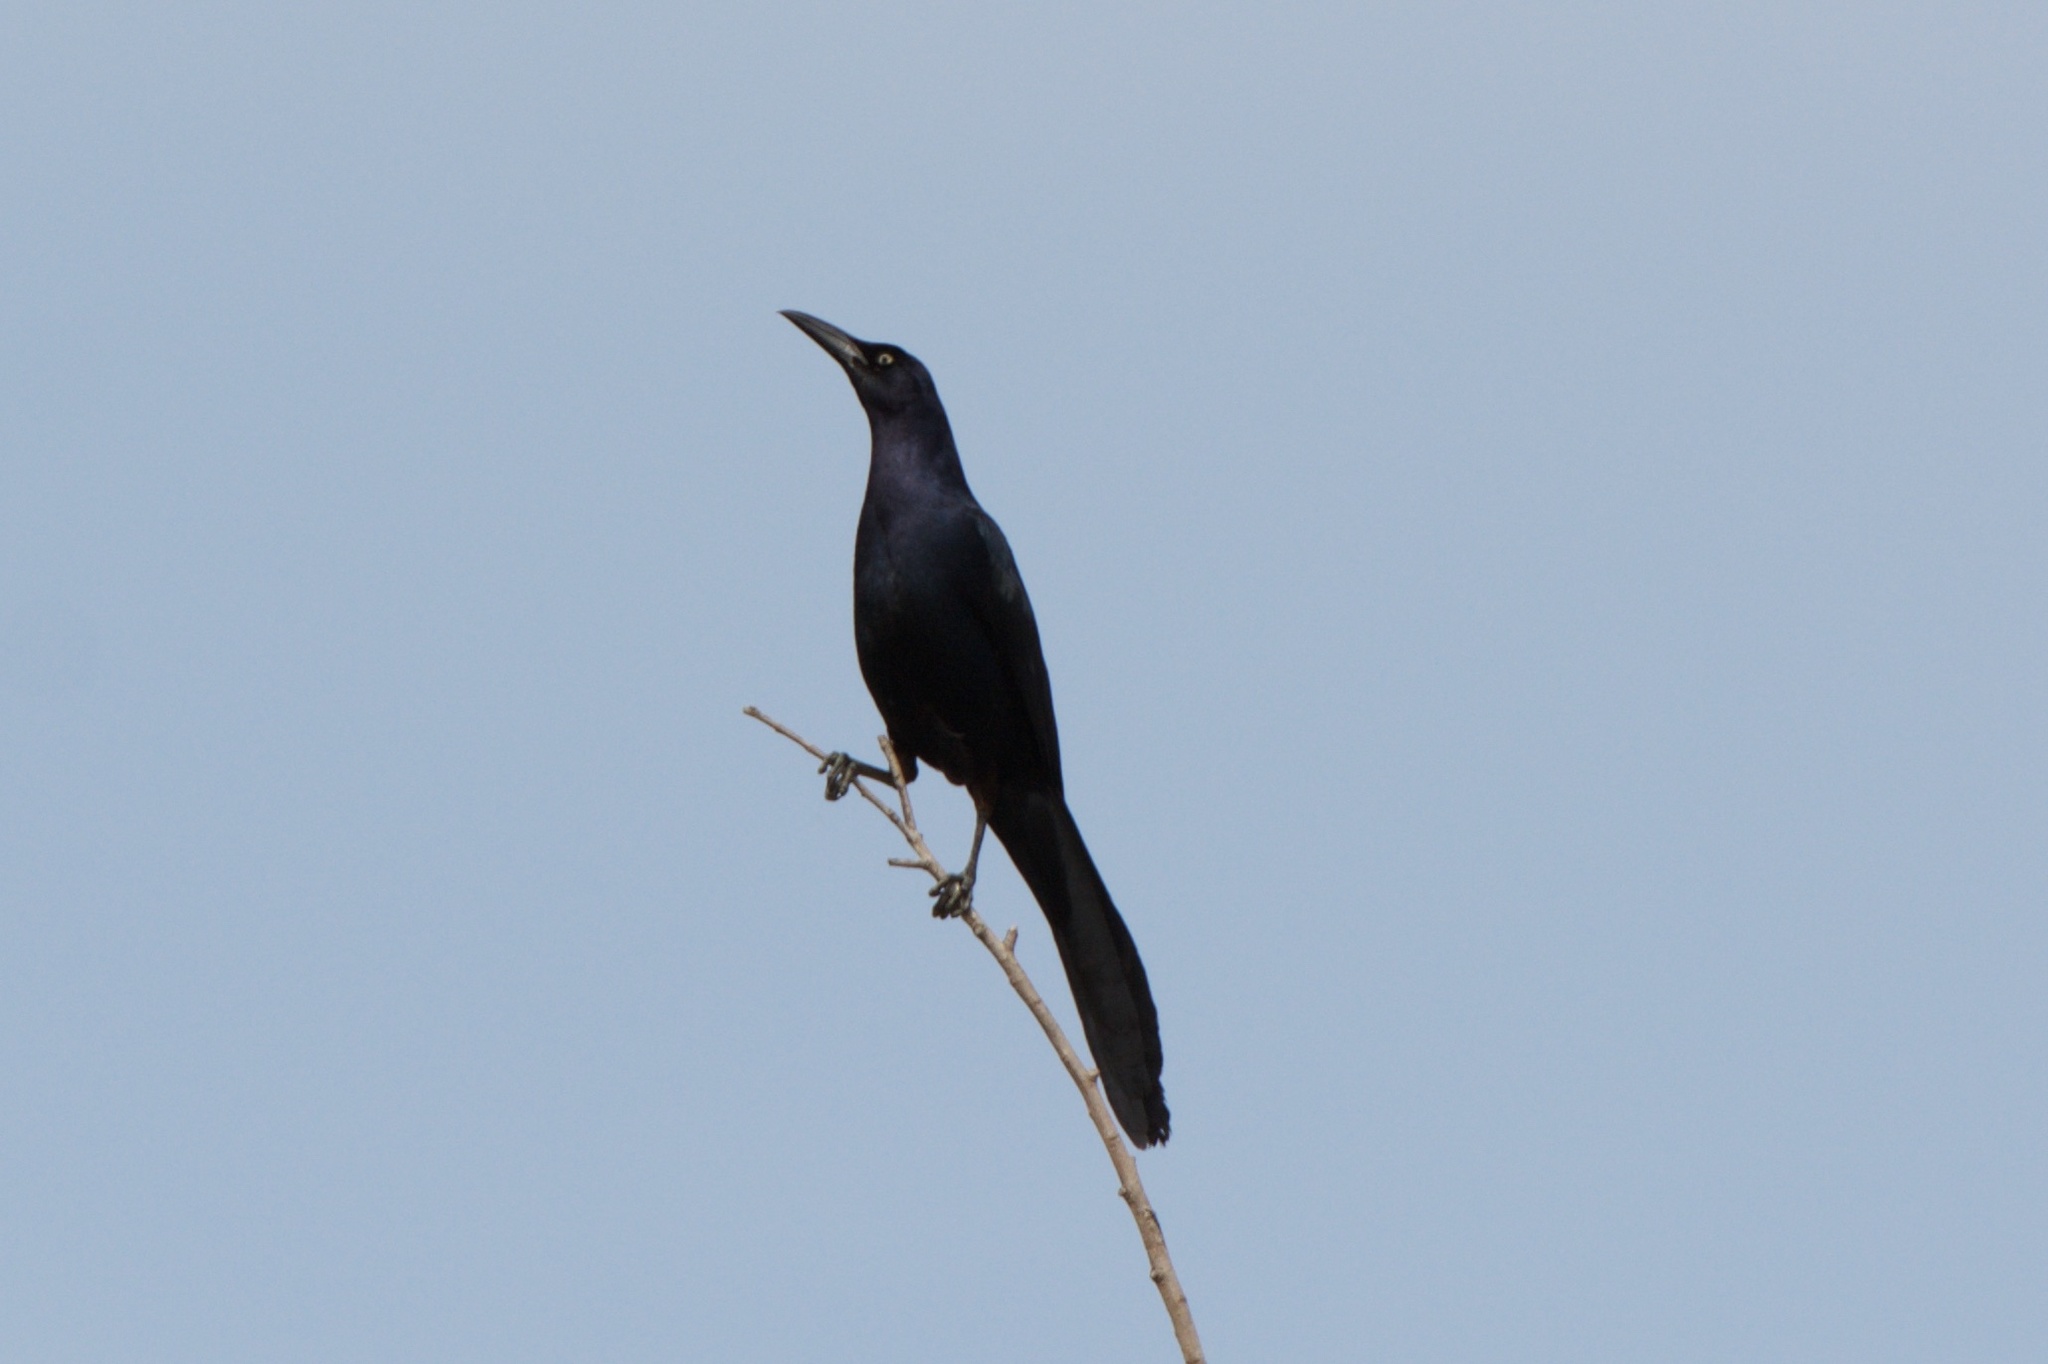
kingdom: Animalia
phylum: Chordata
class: Aves
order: Passeriformes
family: Icteridae
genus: Quiscalus
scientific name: Quiscalus mexicanus
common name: Great-tailed grackle
